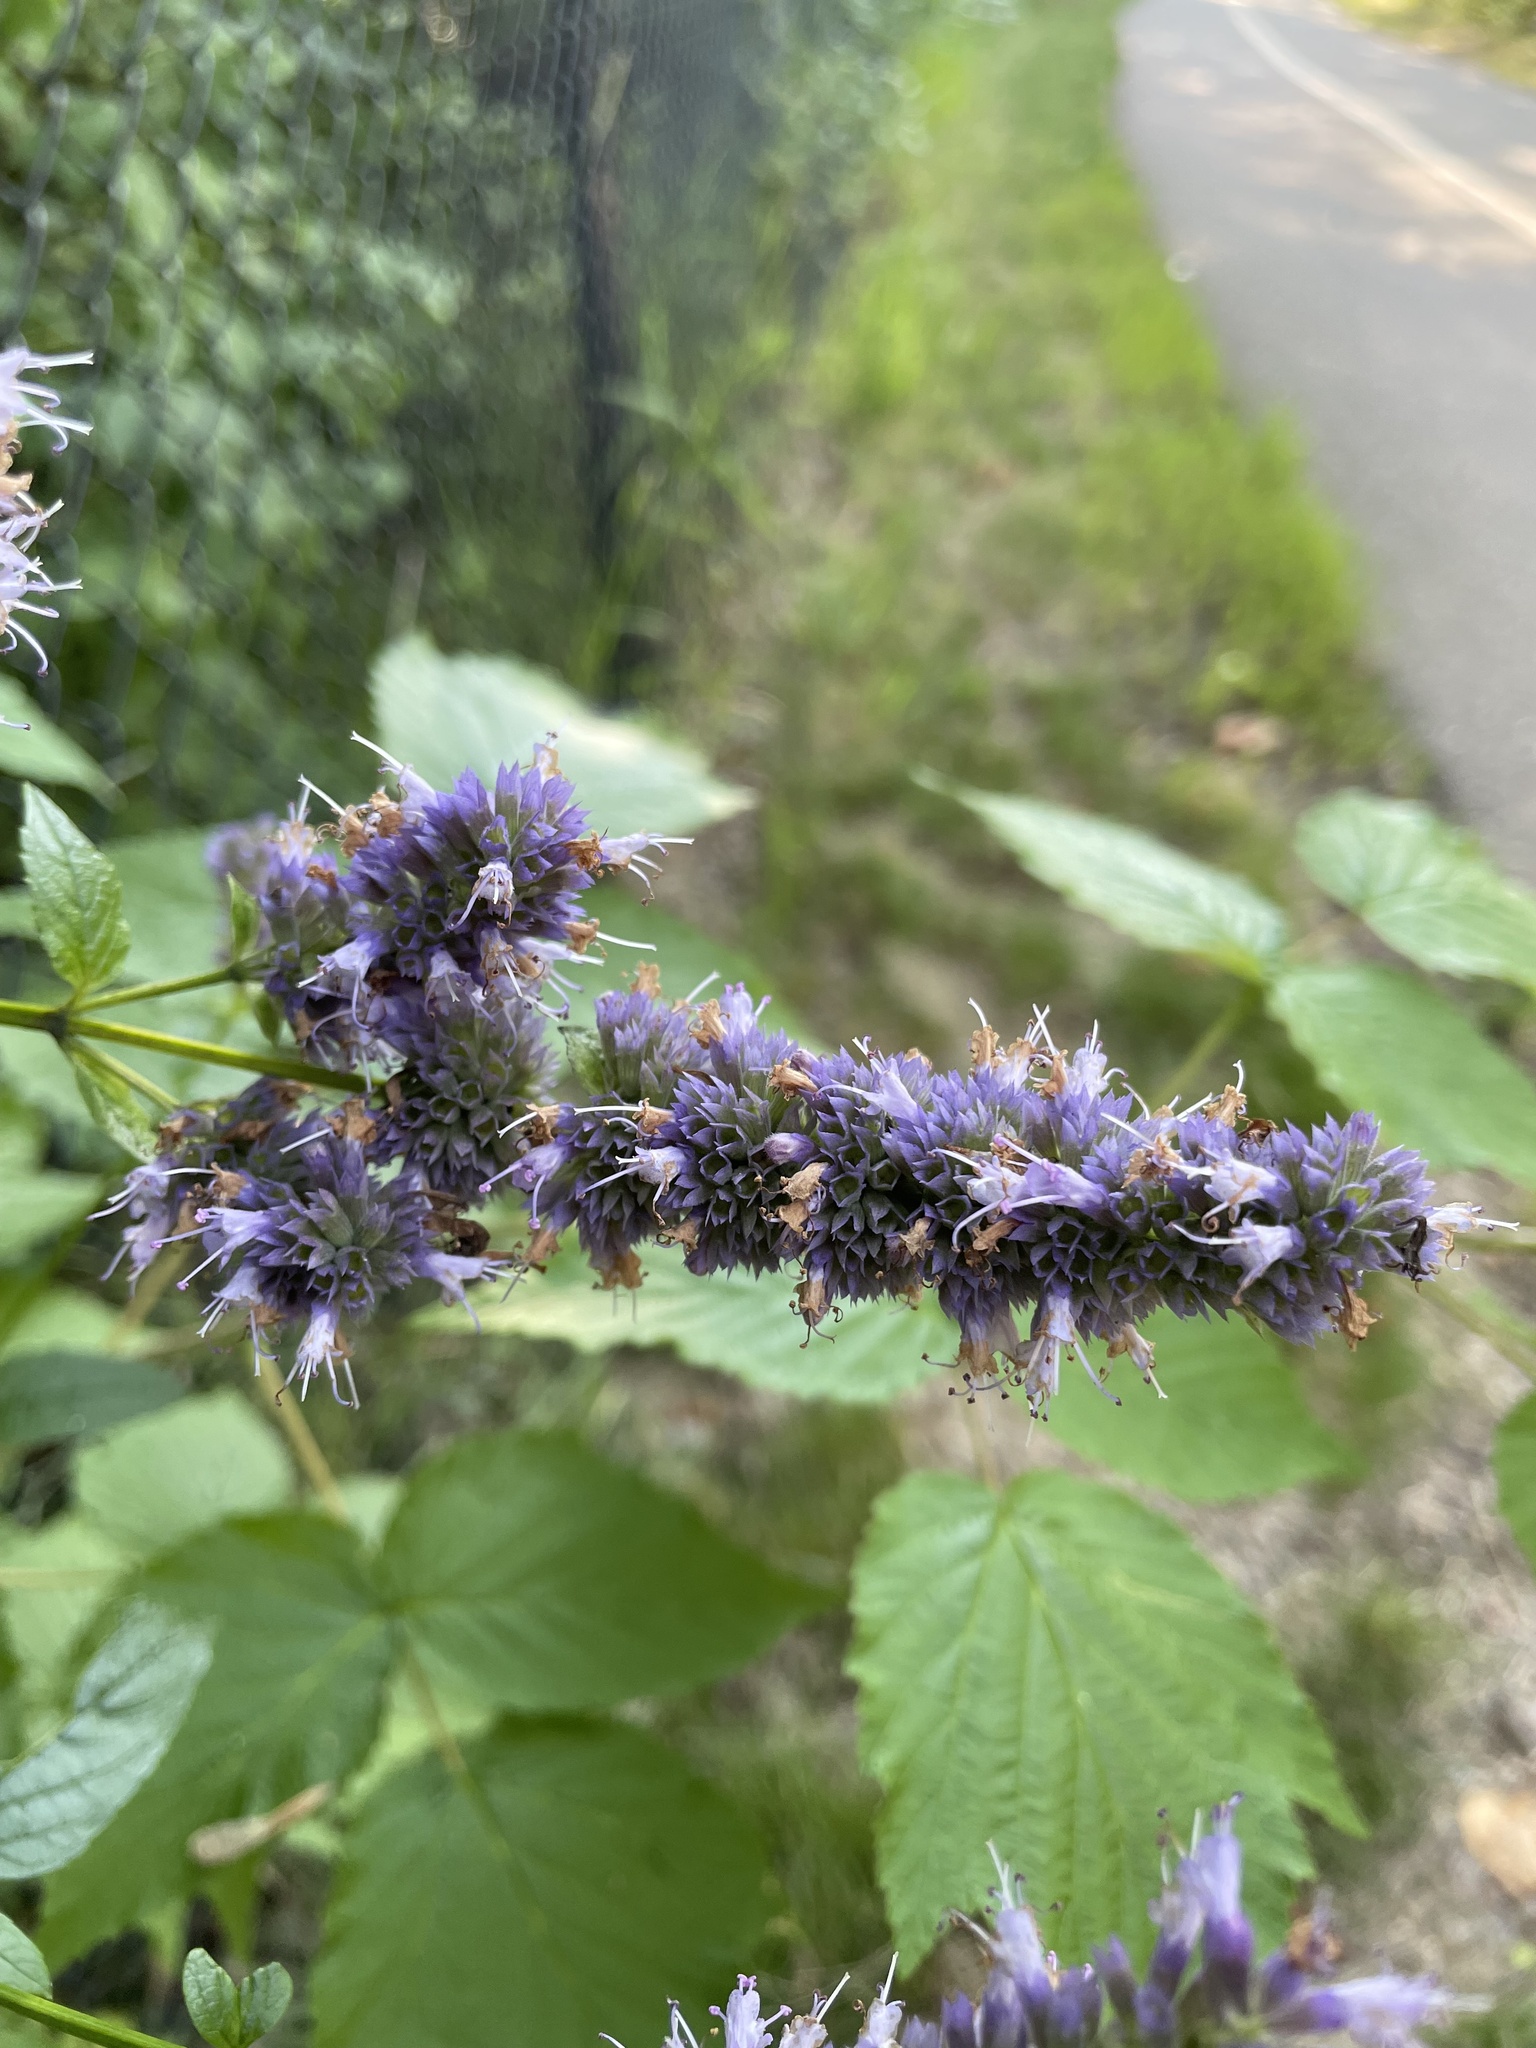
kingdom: Plantae
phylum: Tracheophyta
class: Magnoliopsida
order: Lamiales
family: Lamiaceae
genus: Agastache
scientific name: Agastache foeniculum
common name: Anise hyssop
